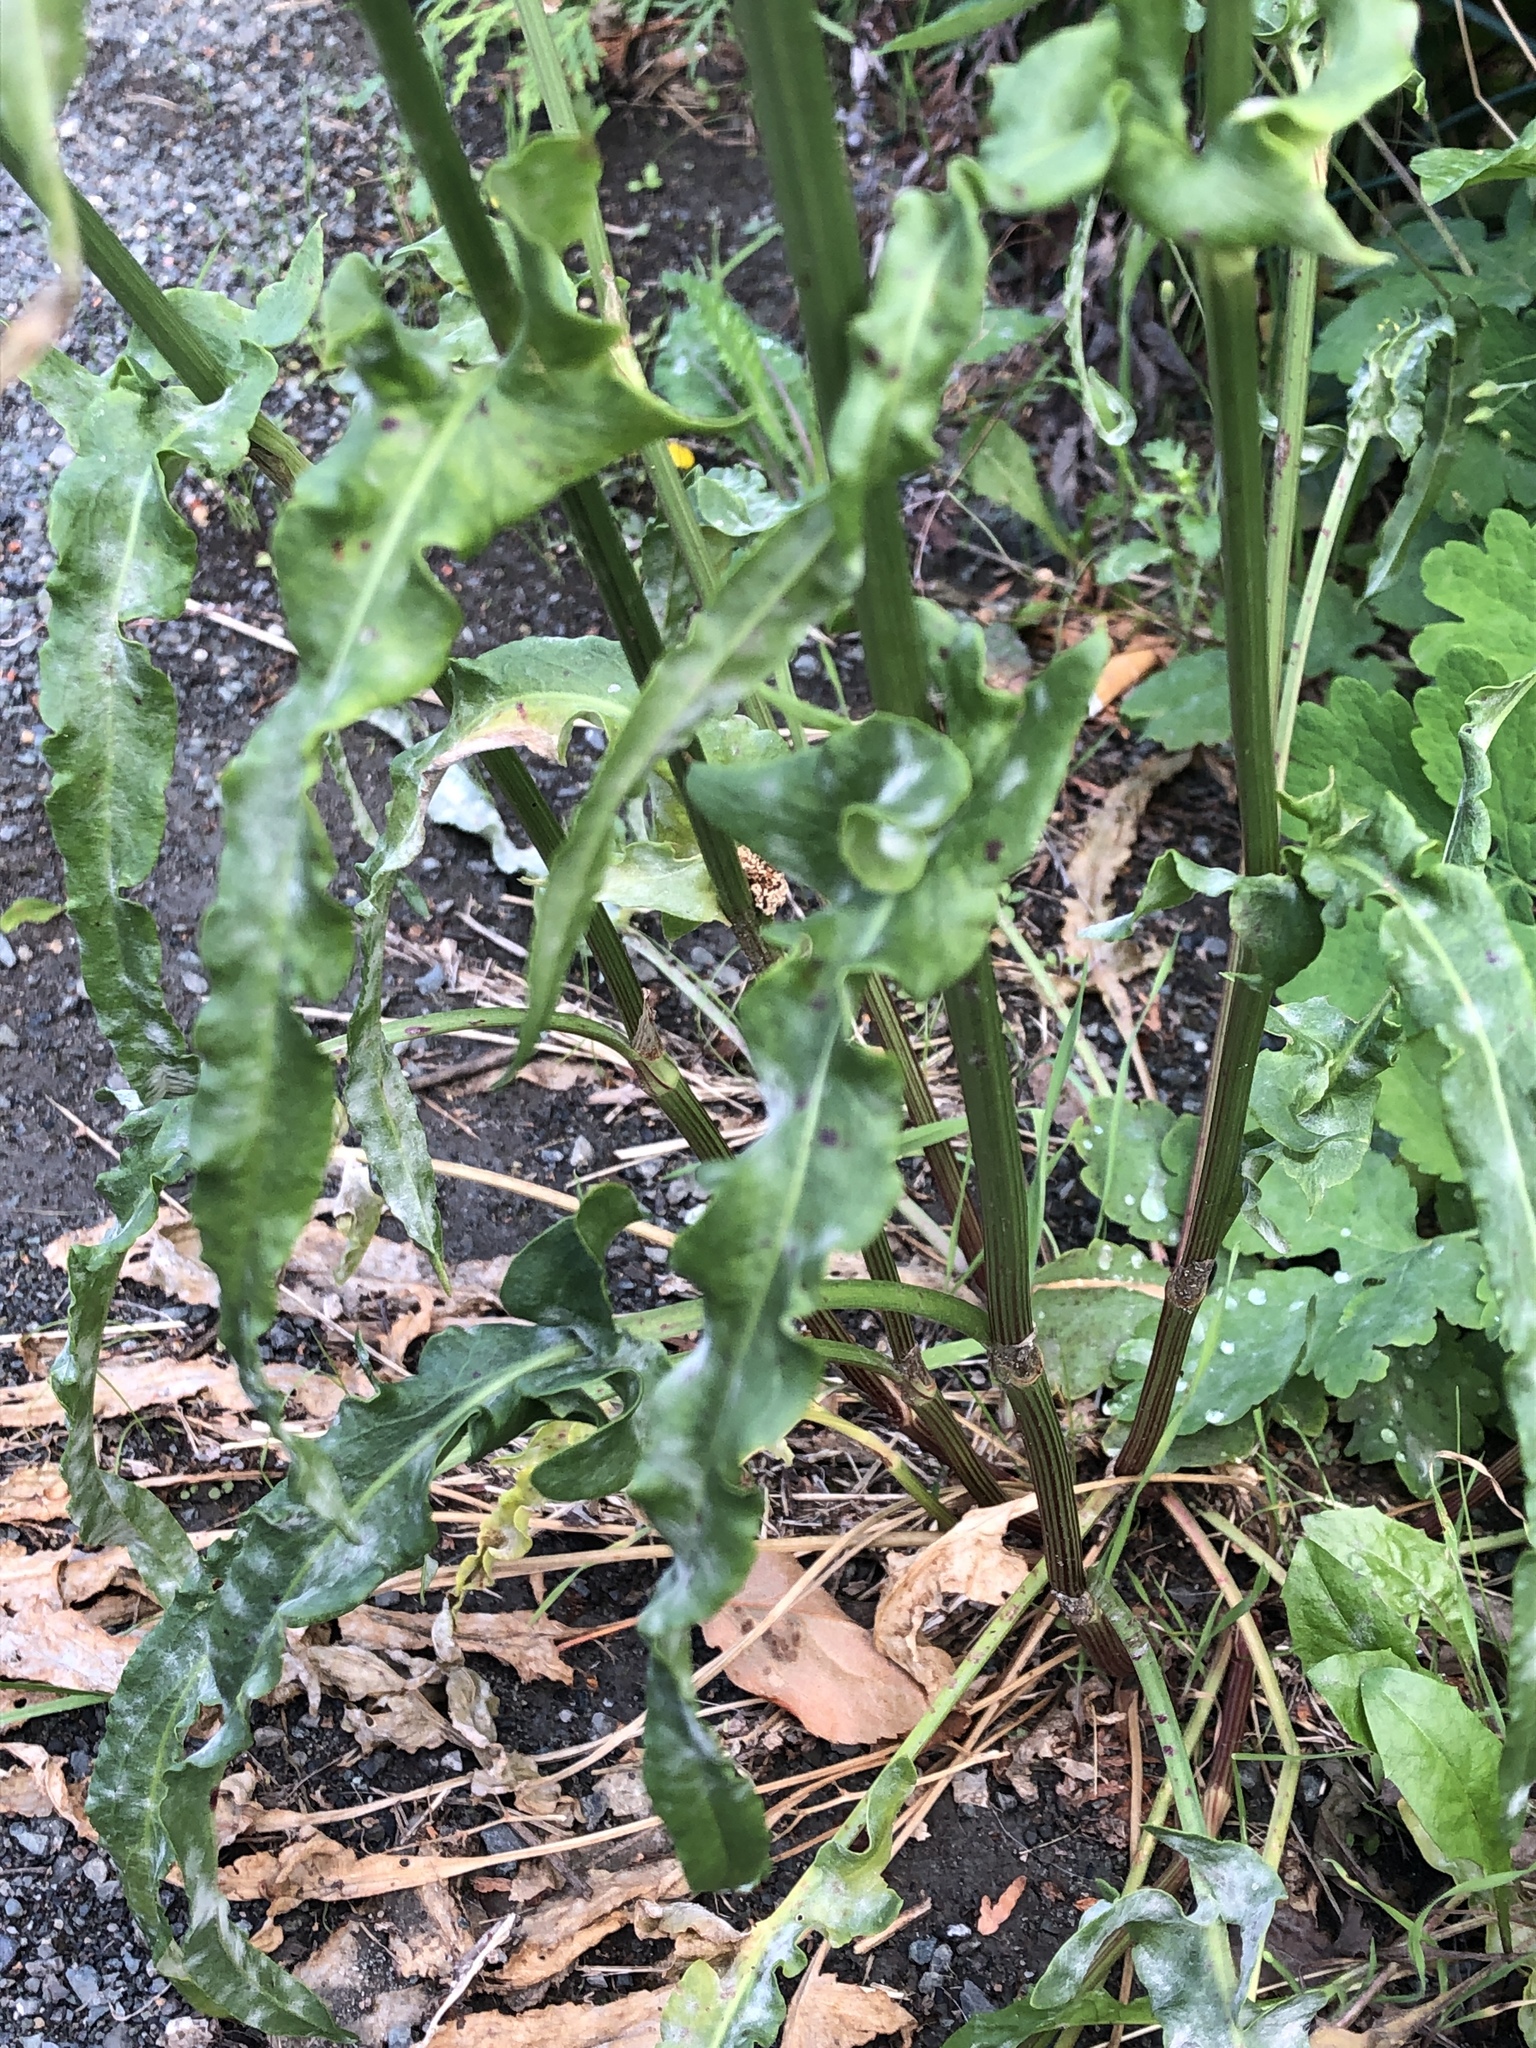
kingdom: Plantae
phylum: Tracheophyta
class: Magnoliopsida
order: Caryophyllales
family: Polygonaceae
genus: Rumex
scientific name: Rumex thyrsiflorus
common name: Garden sorrel
